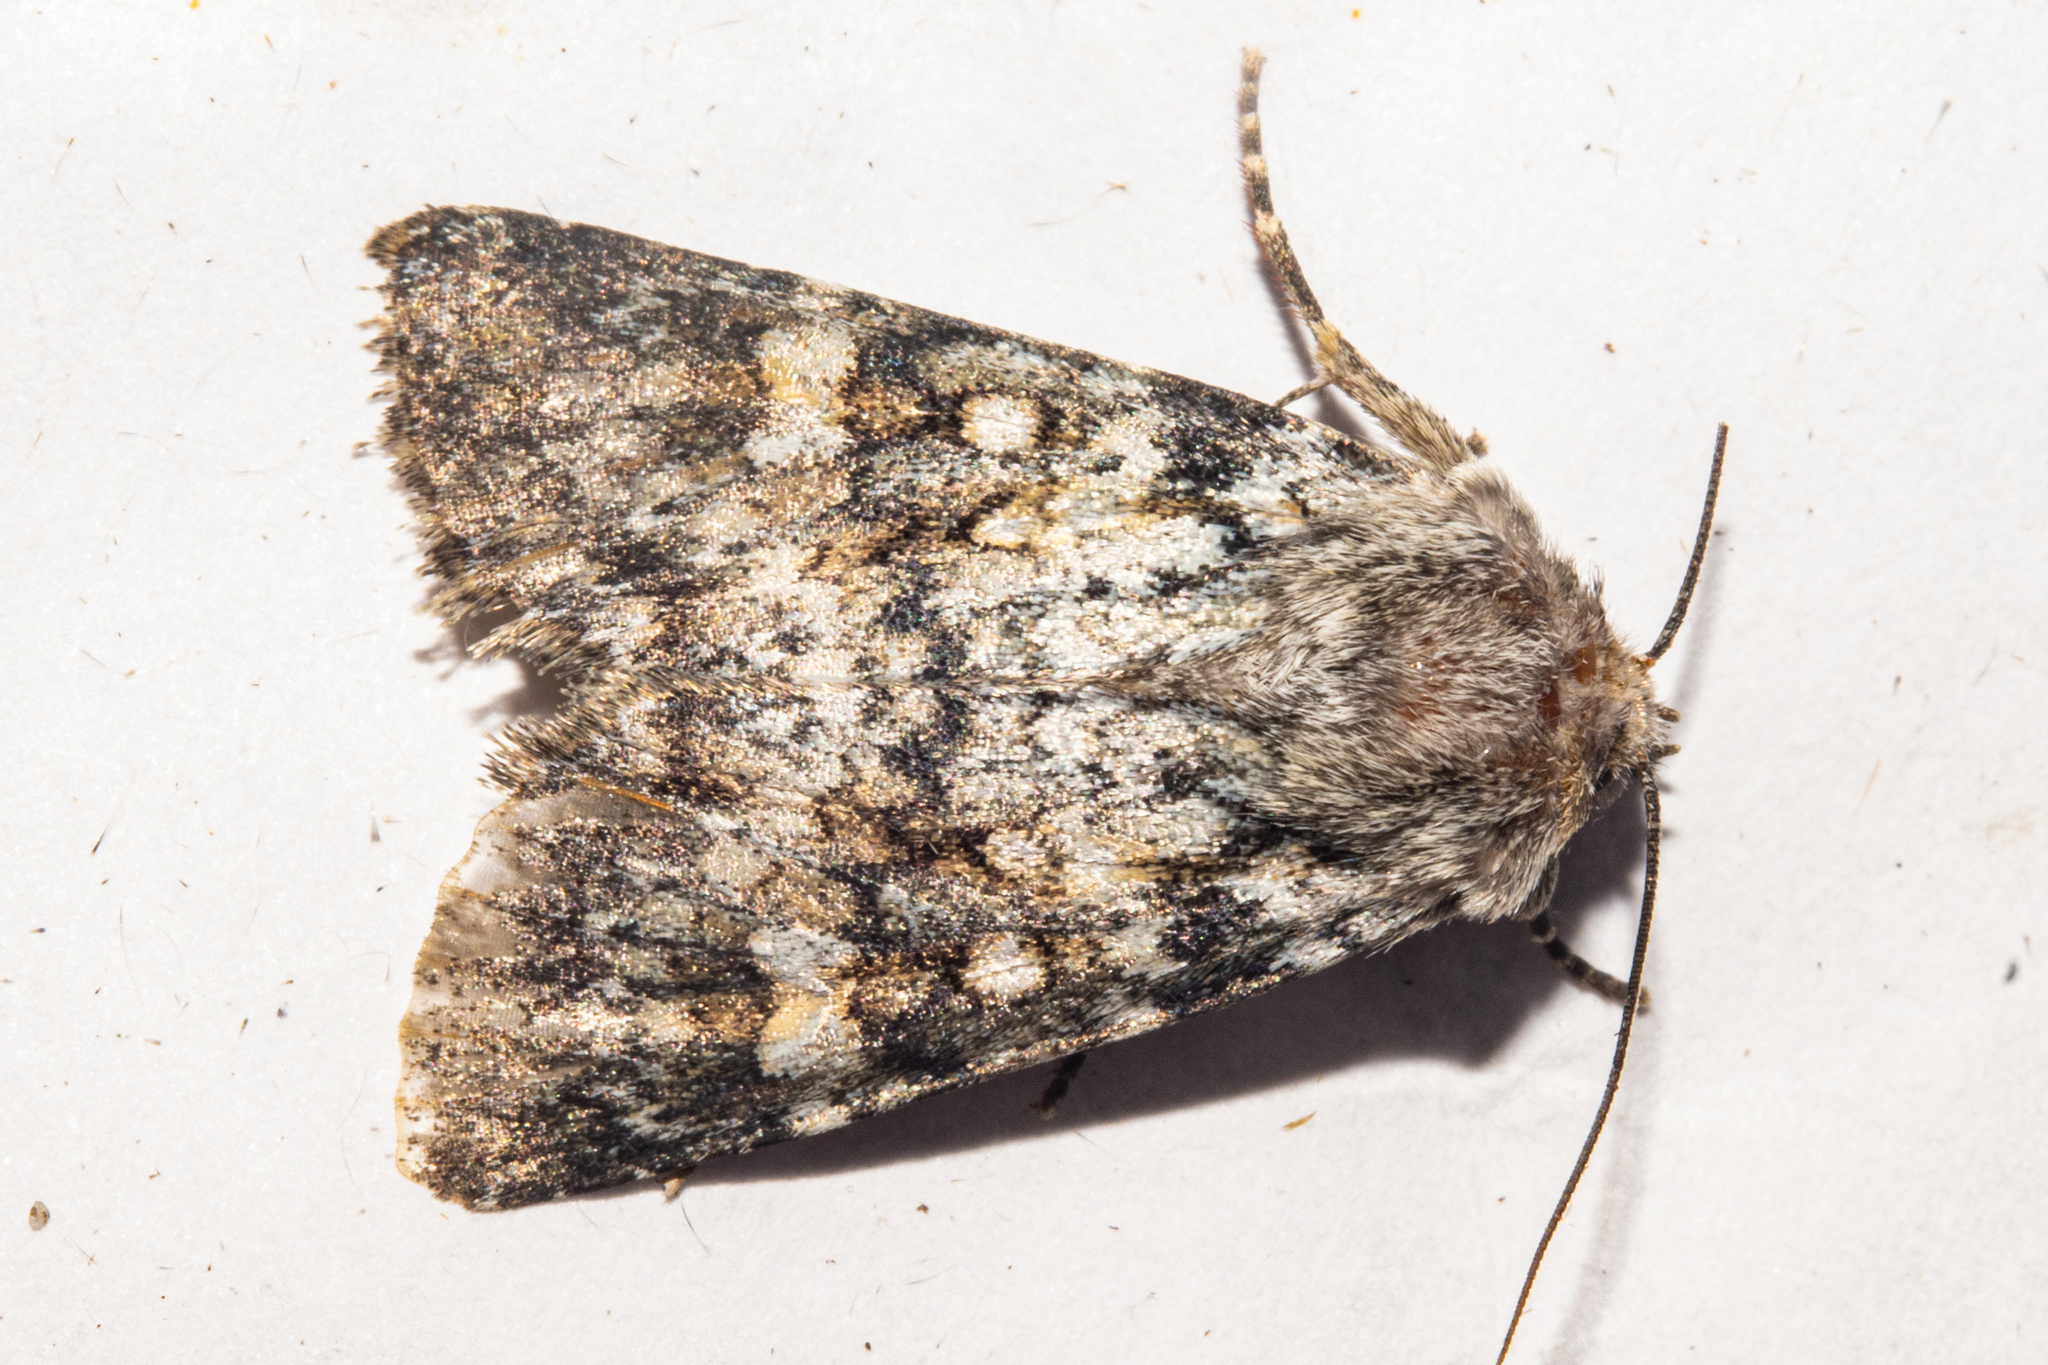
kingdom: Animalia
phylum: Arthropoda
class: Insecta
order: Lepidoptera
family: Noctuidae
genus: Ichneutica
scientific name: Ichneutica
